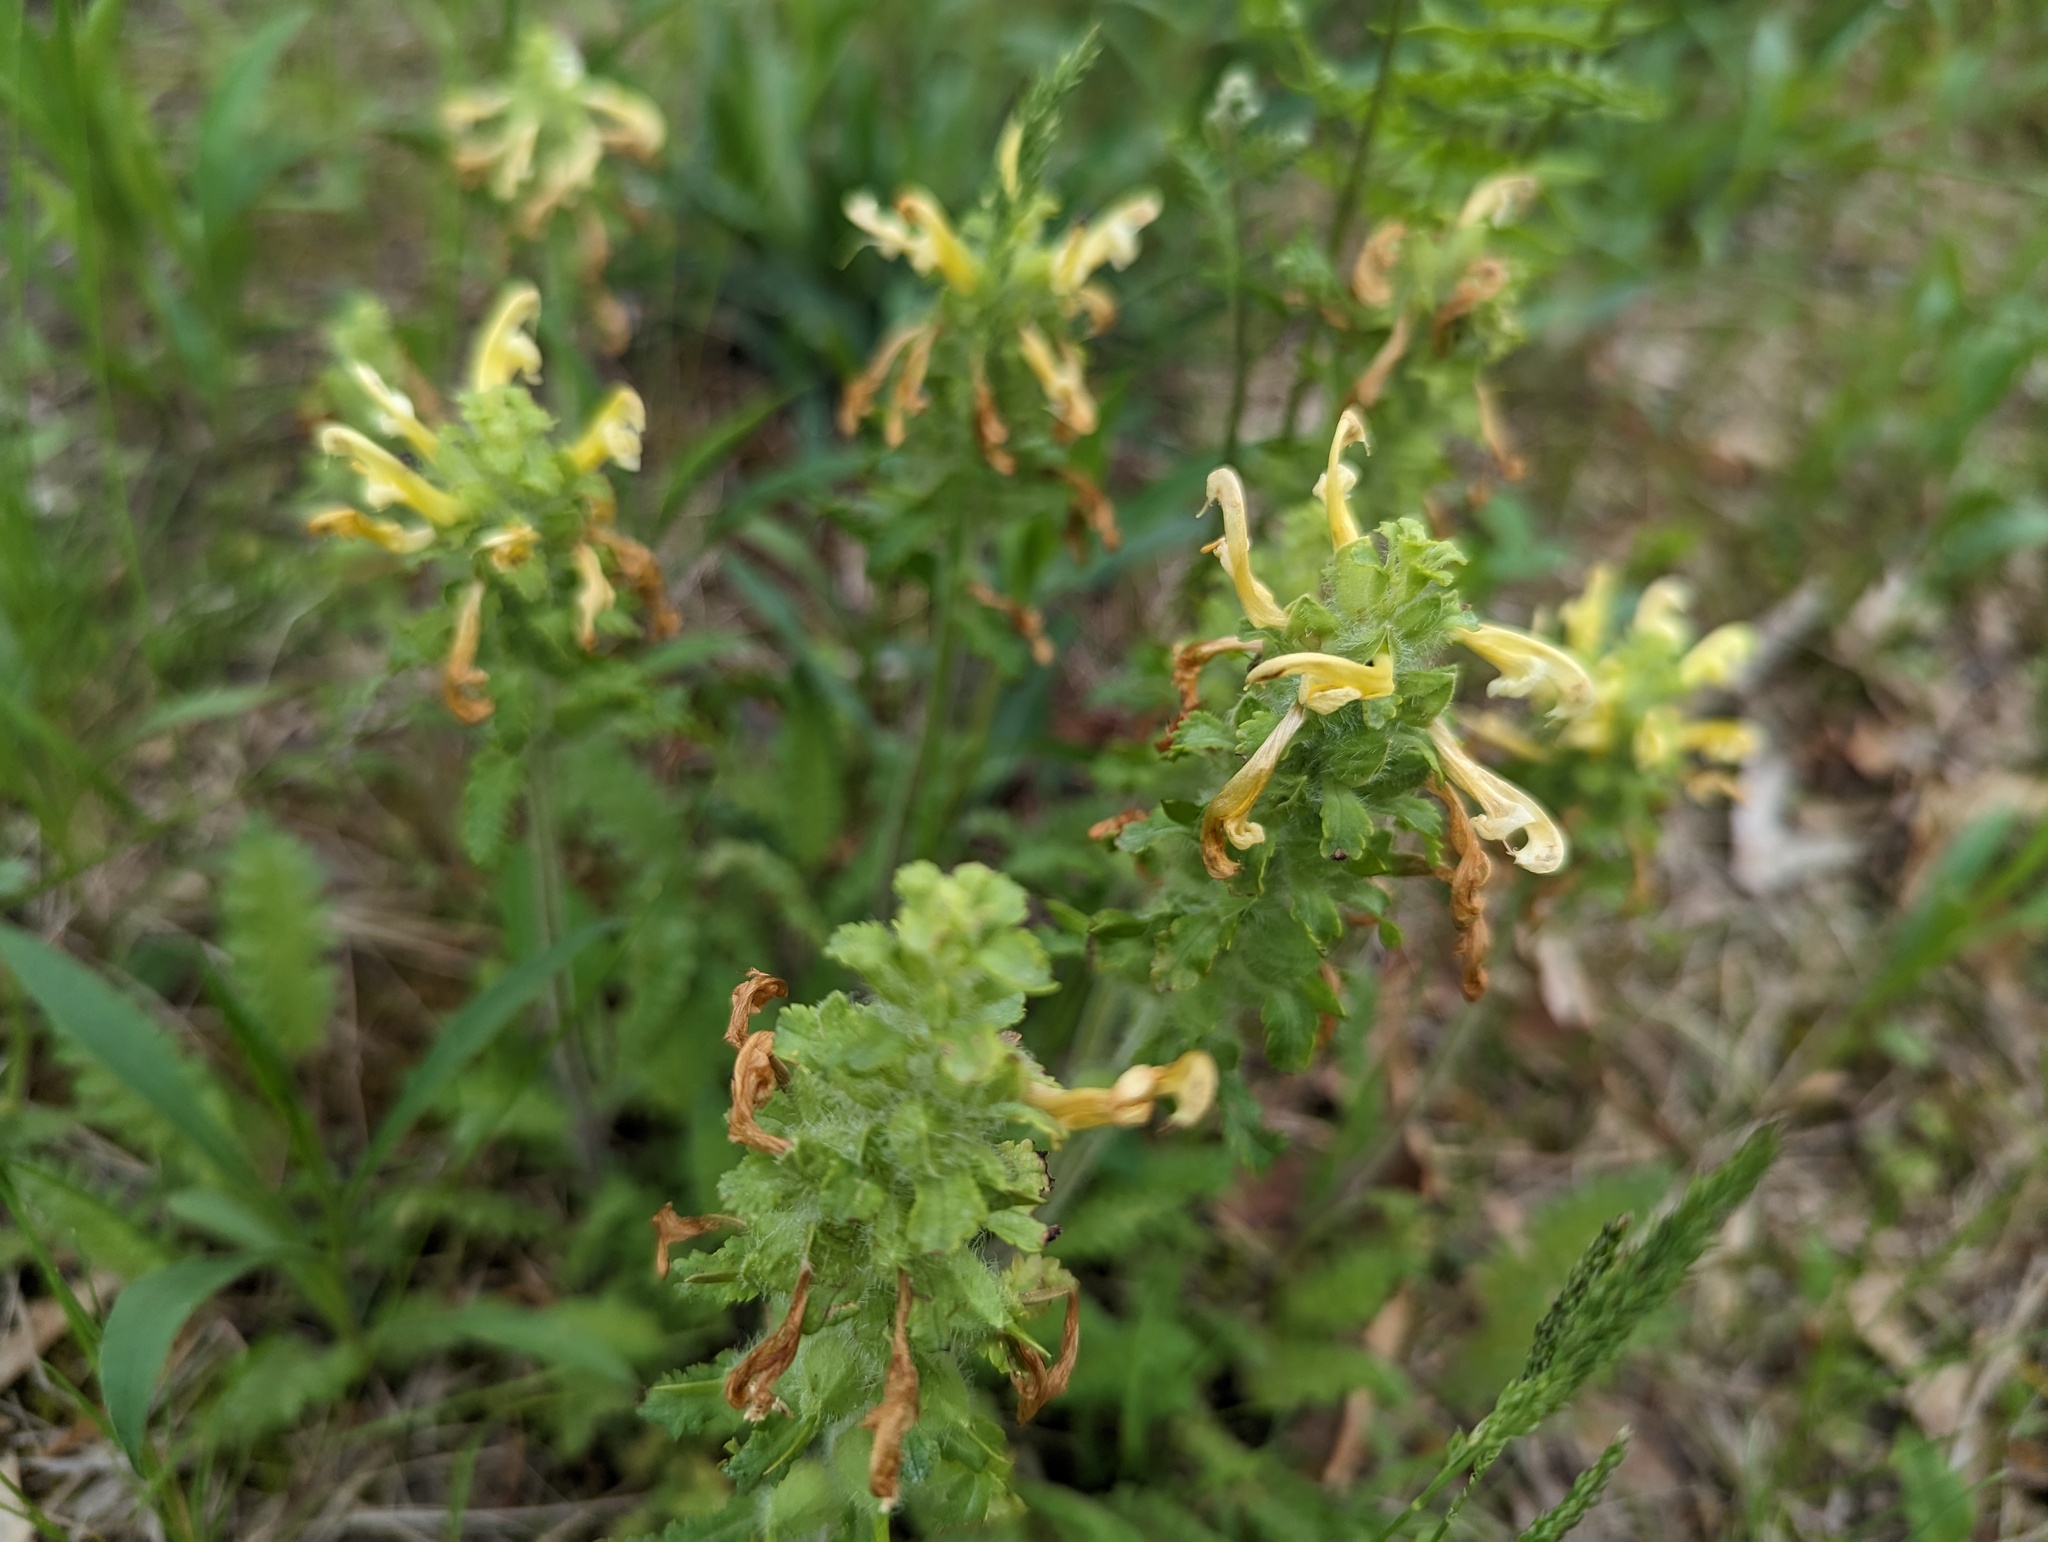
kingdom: Plantae
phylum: Tracheophyta
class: Magnoliopsida
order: Lamiales
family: Orobanchaceae
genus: Pedicularis
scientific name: Pedicularis canadensis
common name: Early lousewort
